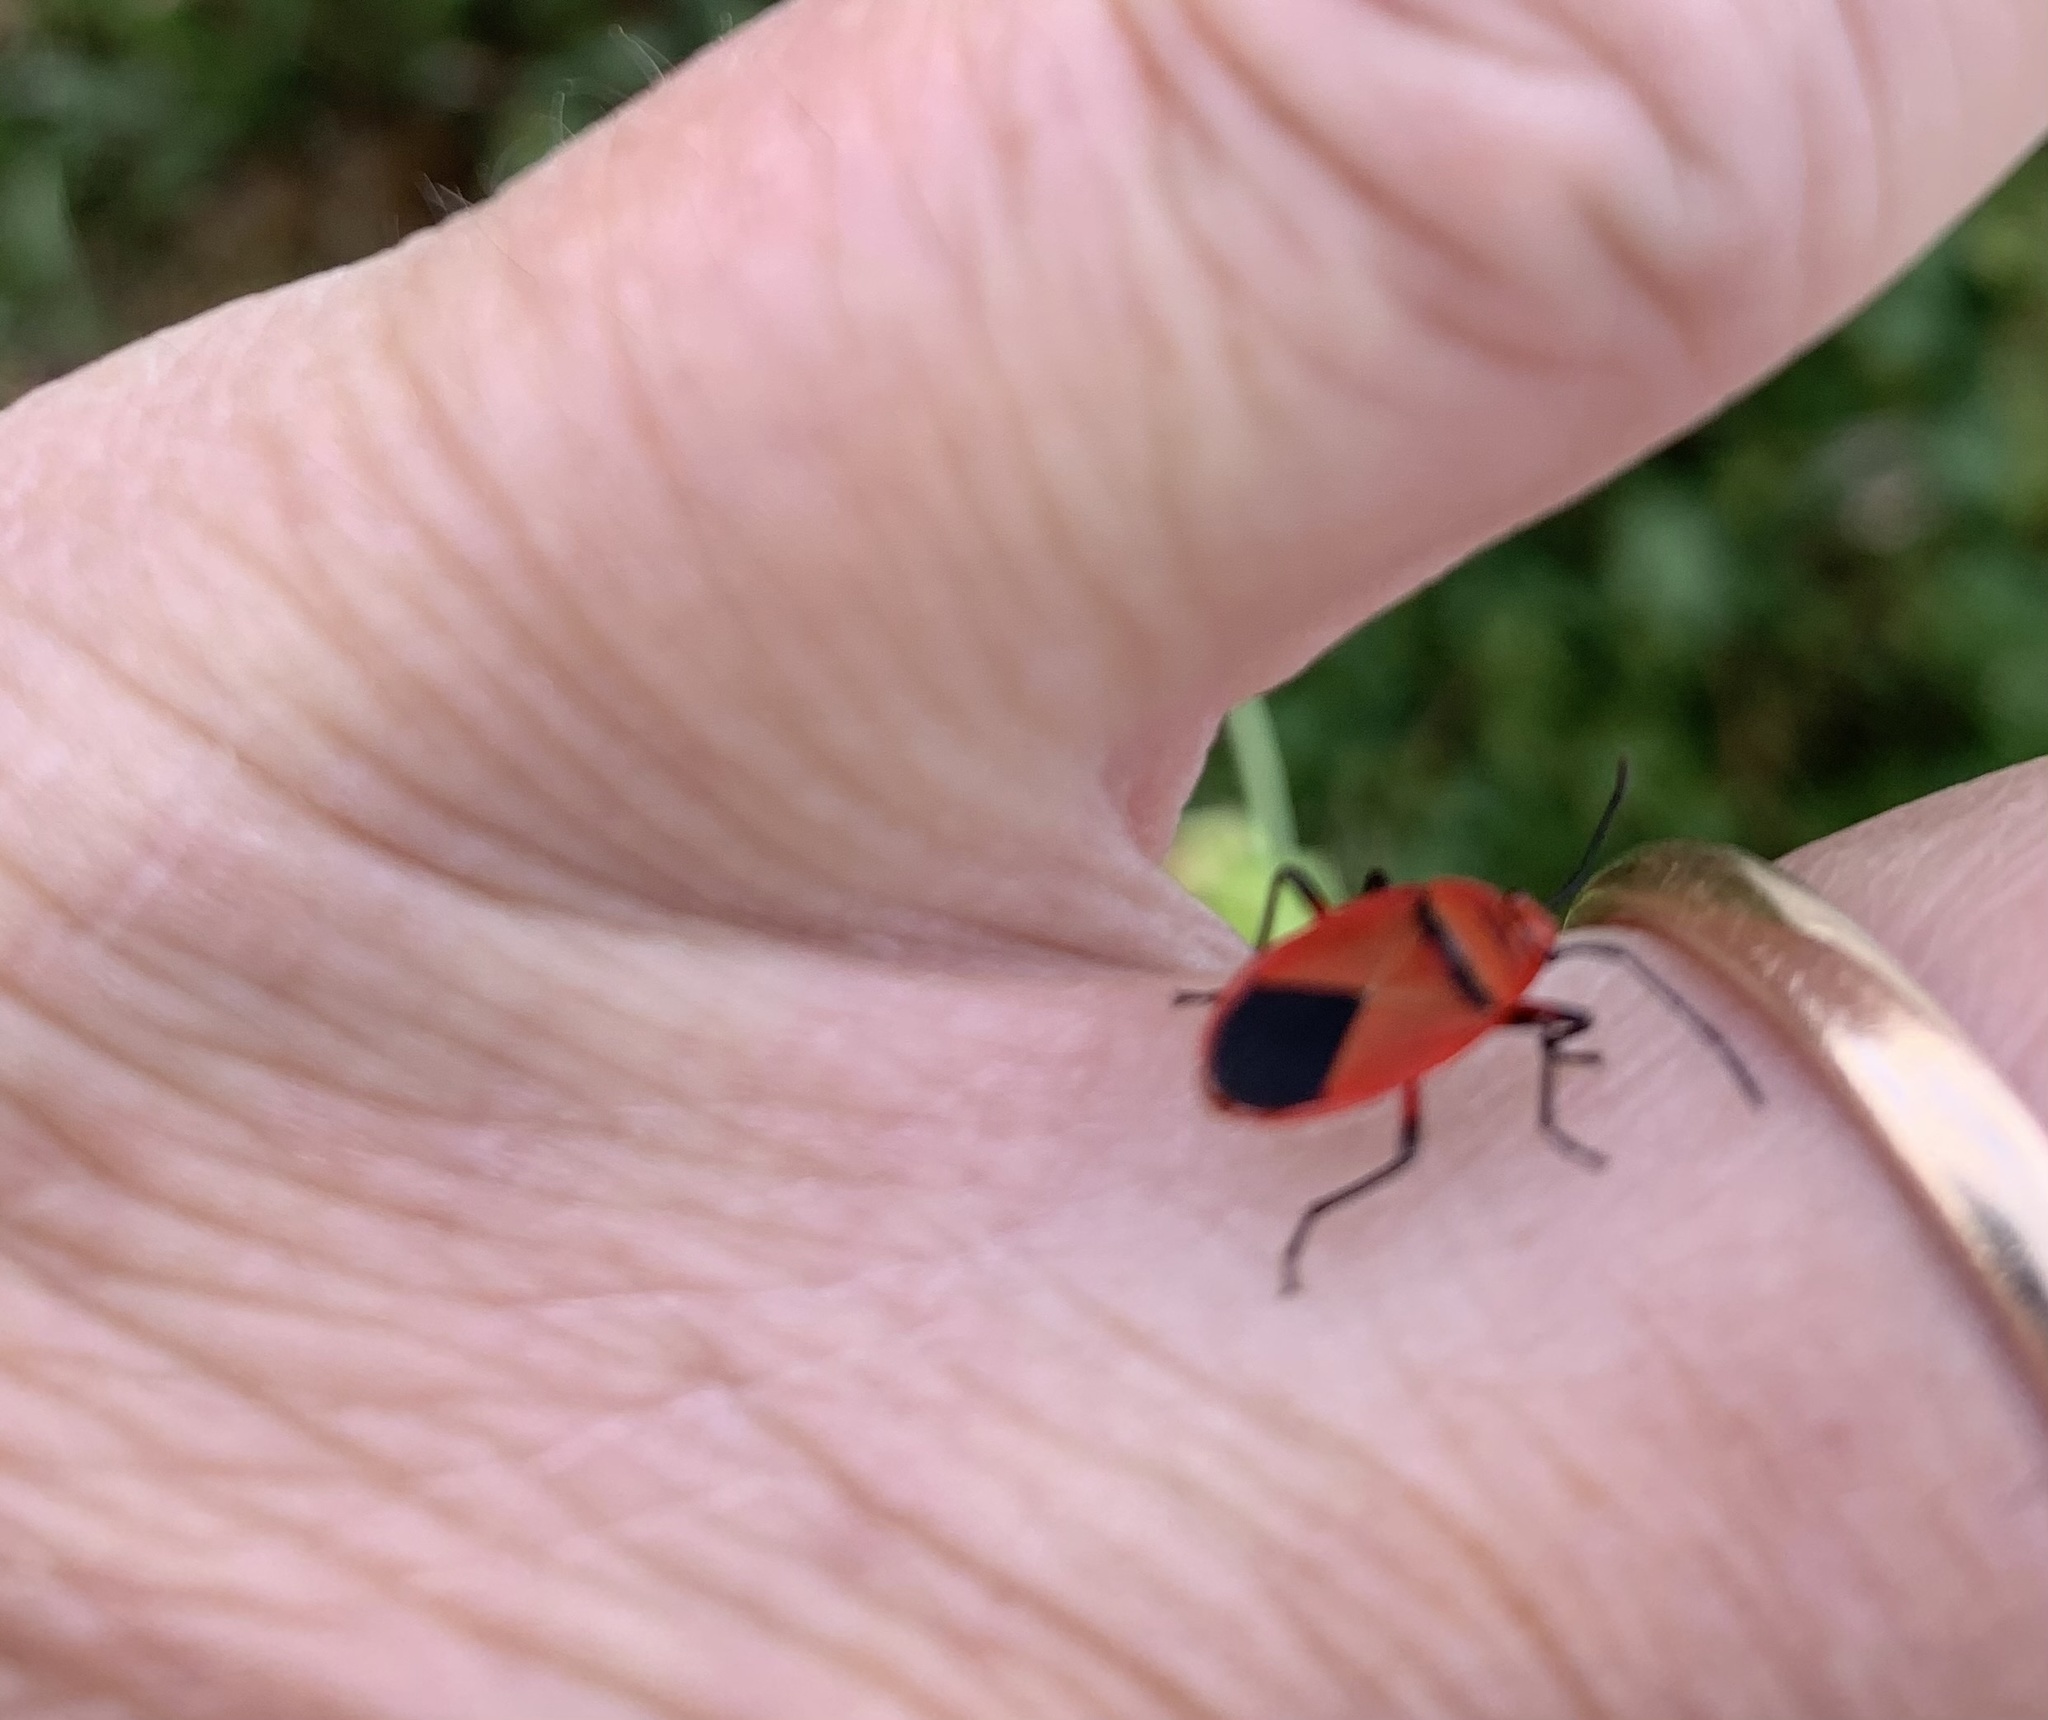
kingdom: Animalia
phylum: Arthropoda
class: Insecta
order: Hemiptera
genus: Cenaeus
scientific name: Cenaeus
